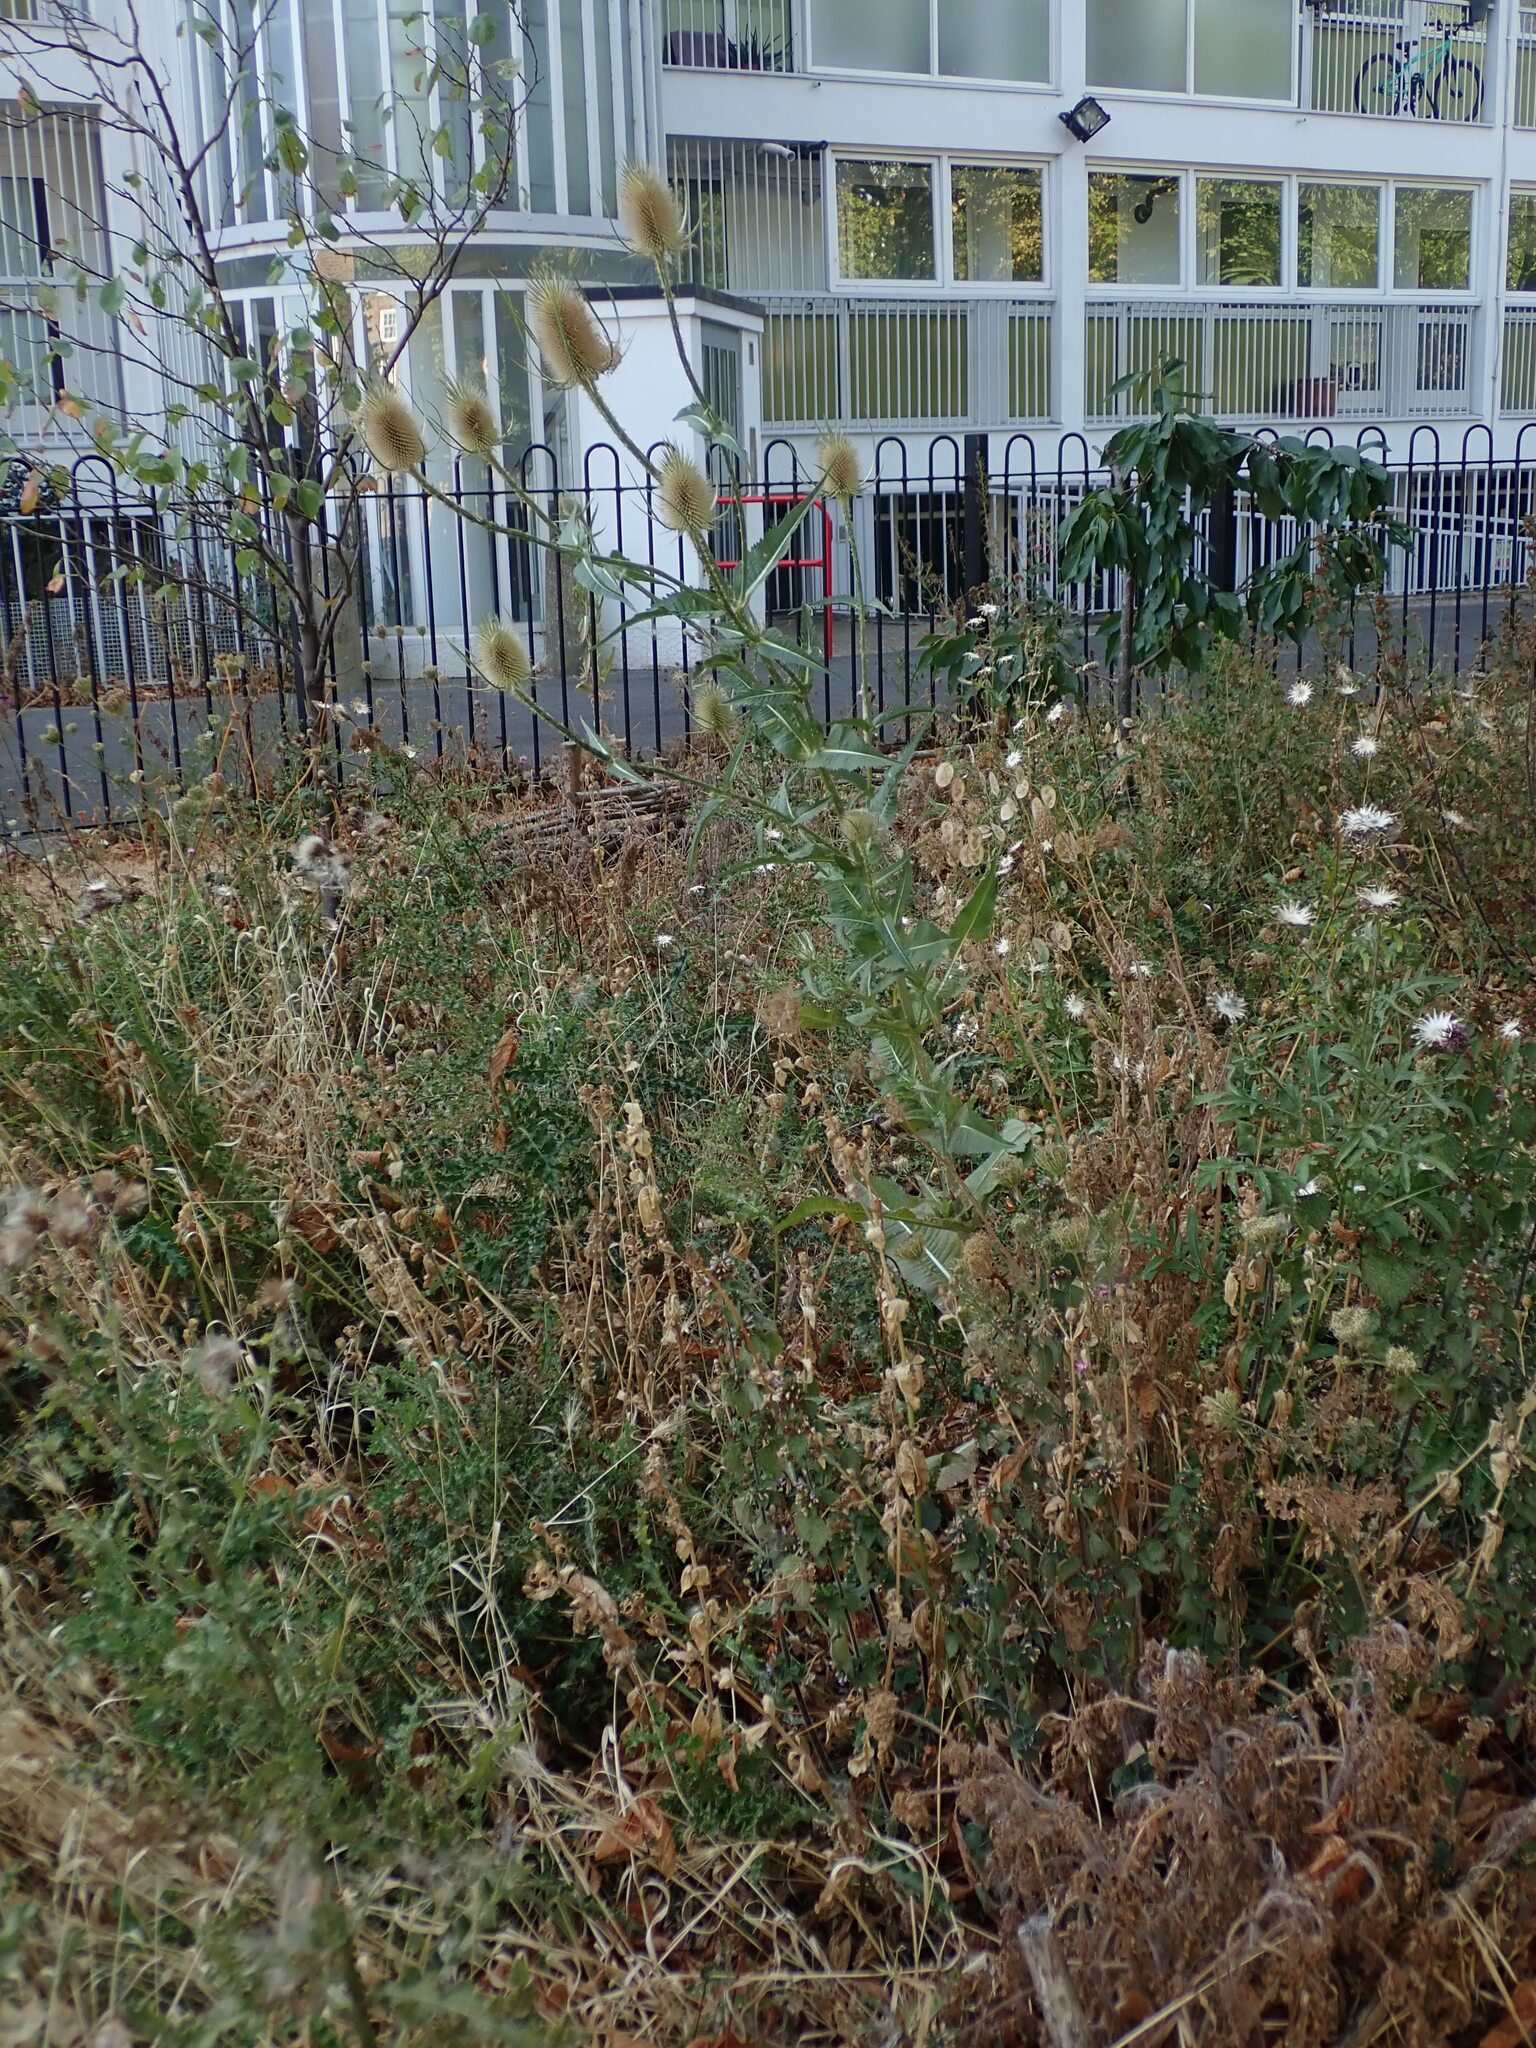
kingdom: Plantae
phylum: Tracheophyta
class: Magnoliopsida
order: Dipsacales
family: Caprifoliaceae
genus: Dipsacus
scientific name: Dipsacus fullonum
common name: Teasel
